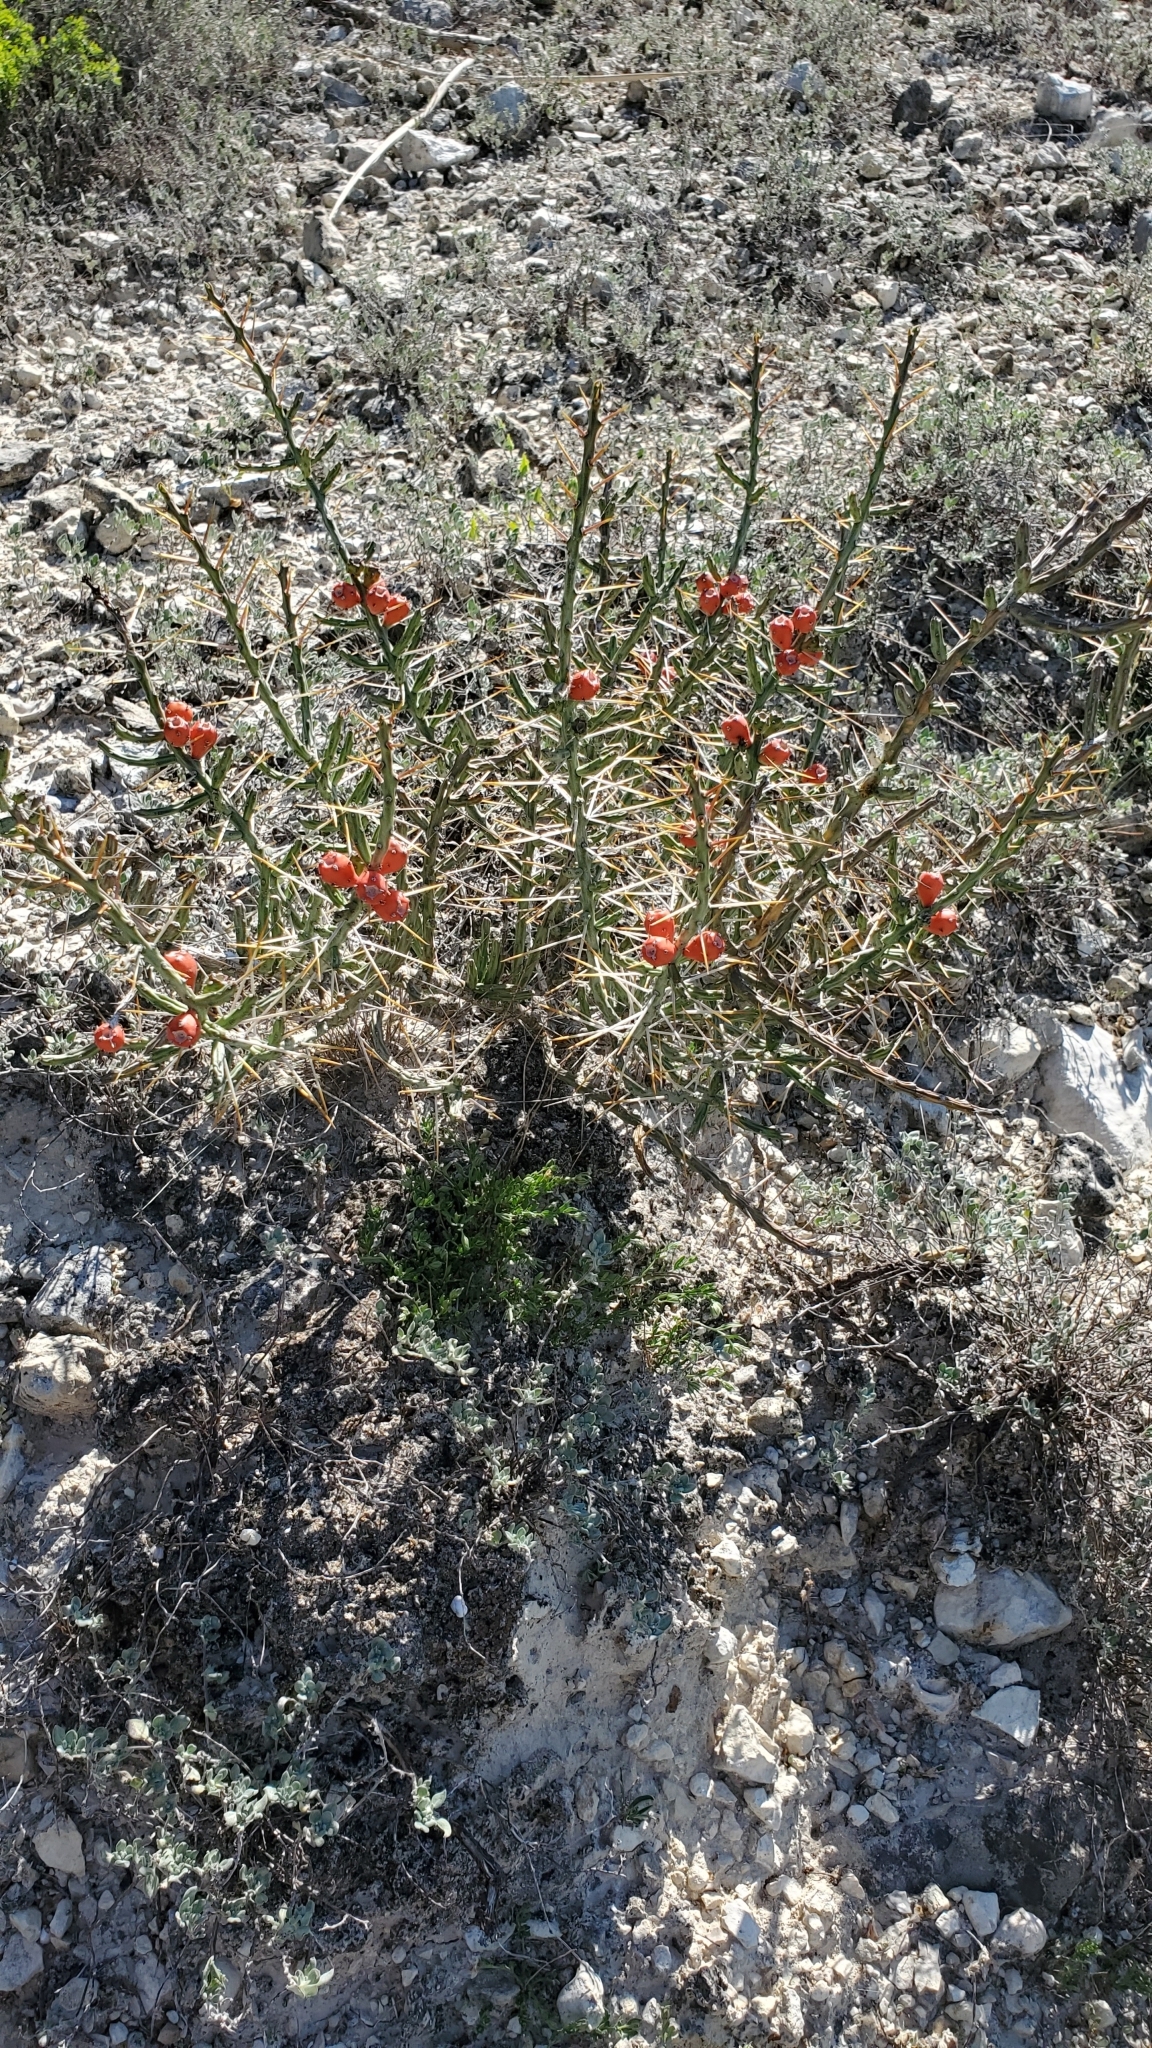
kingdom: Plantae
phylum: Tracheophyta
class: Magnoliopsida
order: Caryophyllales
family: Cactaceae
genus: Cylindropuntia
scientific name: Cylindropuntia leptocaulis
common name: Christmas cactus
